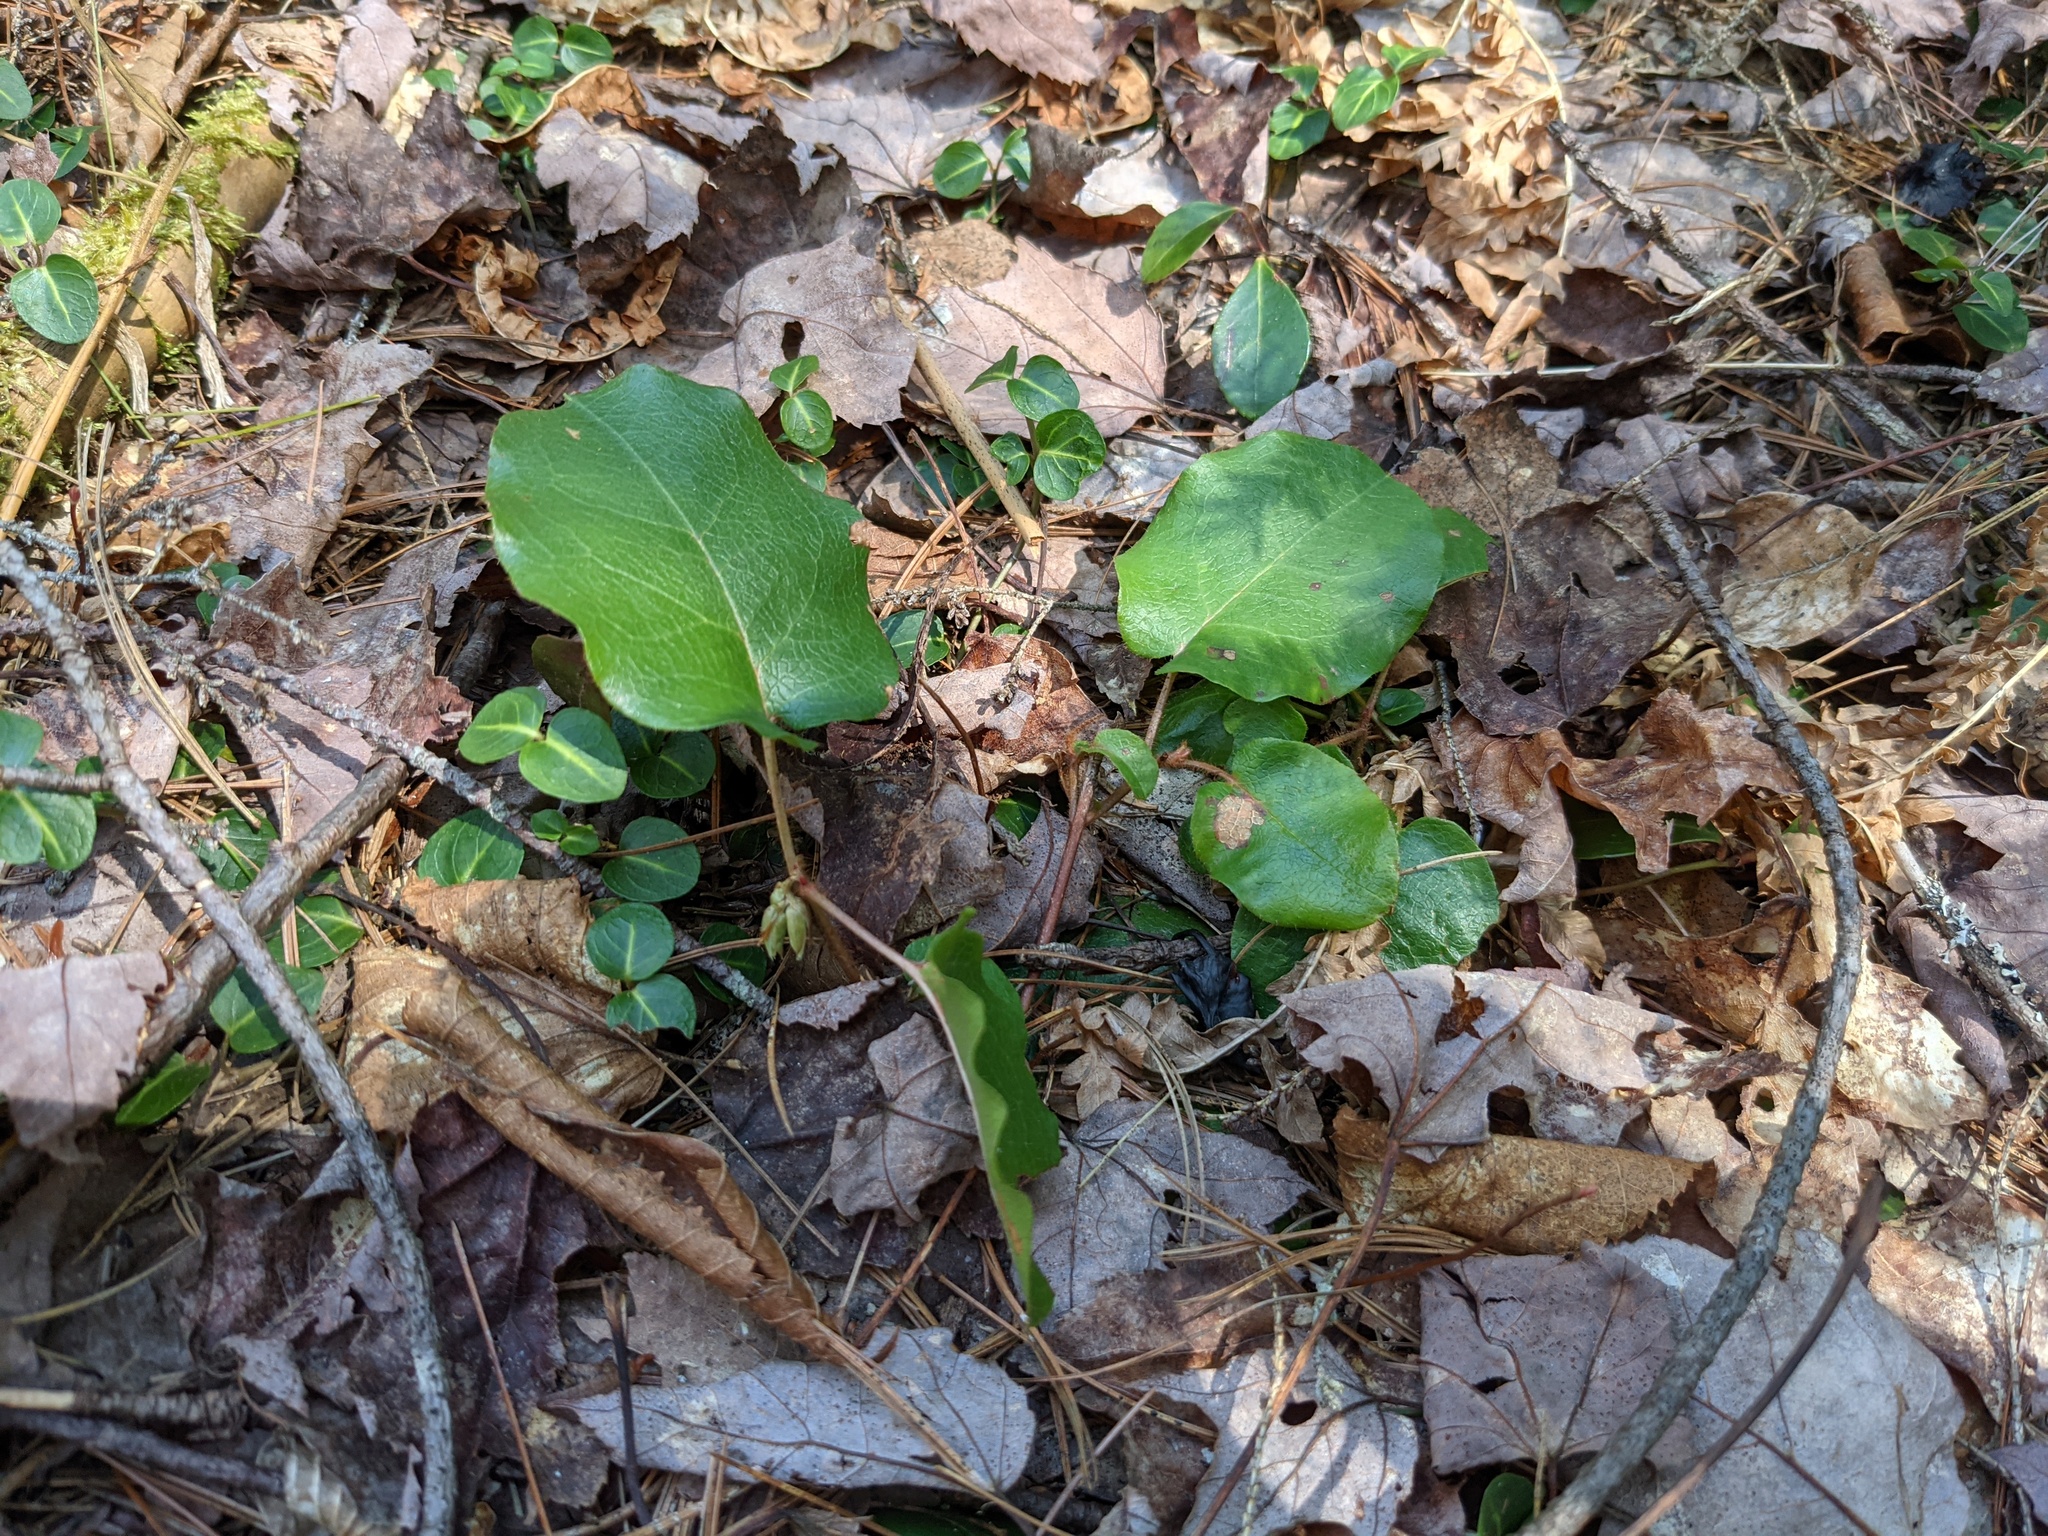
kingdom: Plantae
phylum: Tracheophyta
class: Magnoliopsida
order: Ericales
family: Ericaceae
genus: Epigaea
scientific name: Epigaea repens
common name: Gravelroot
